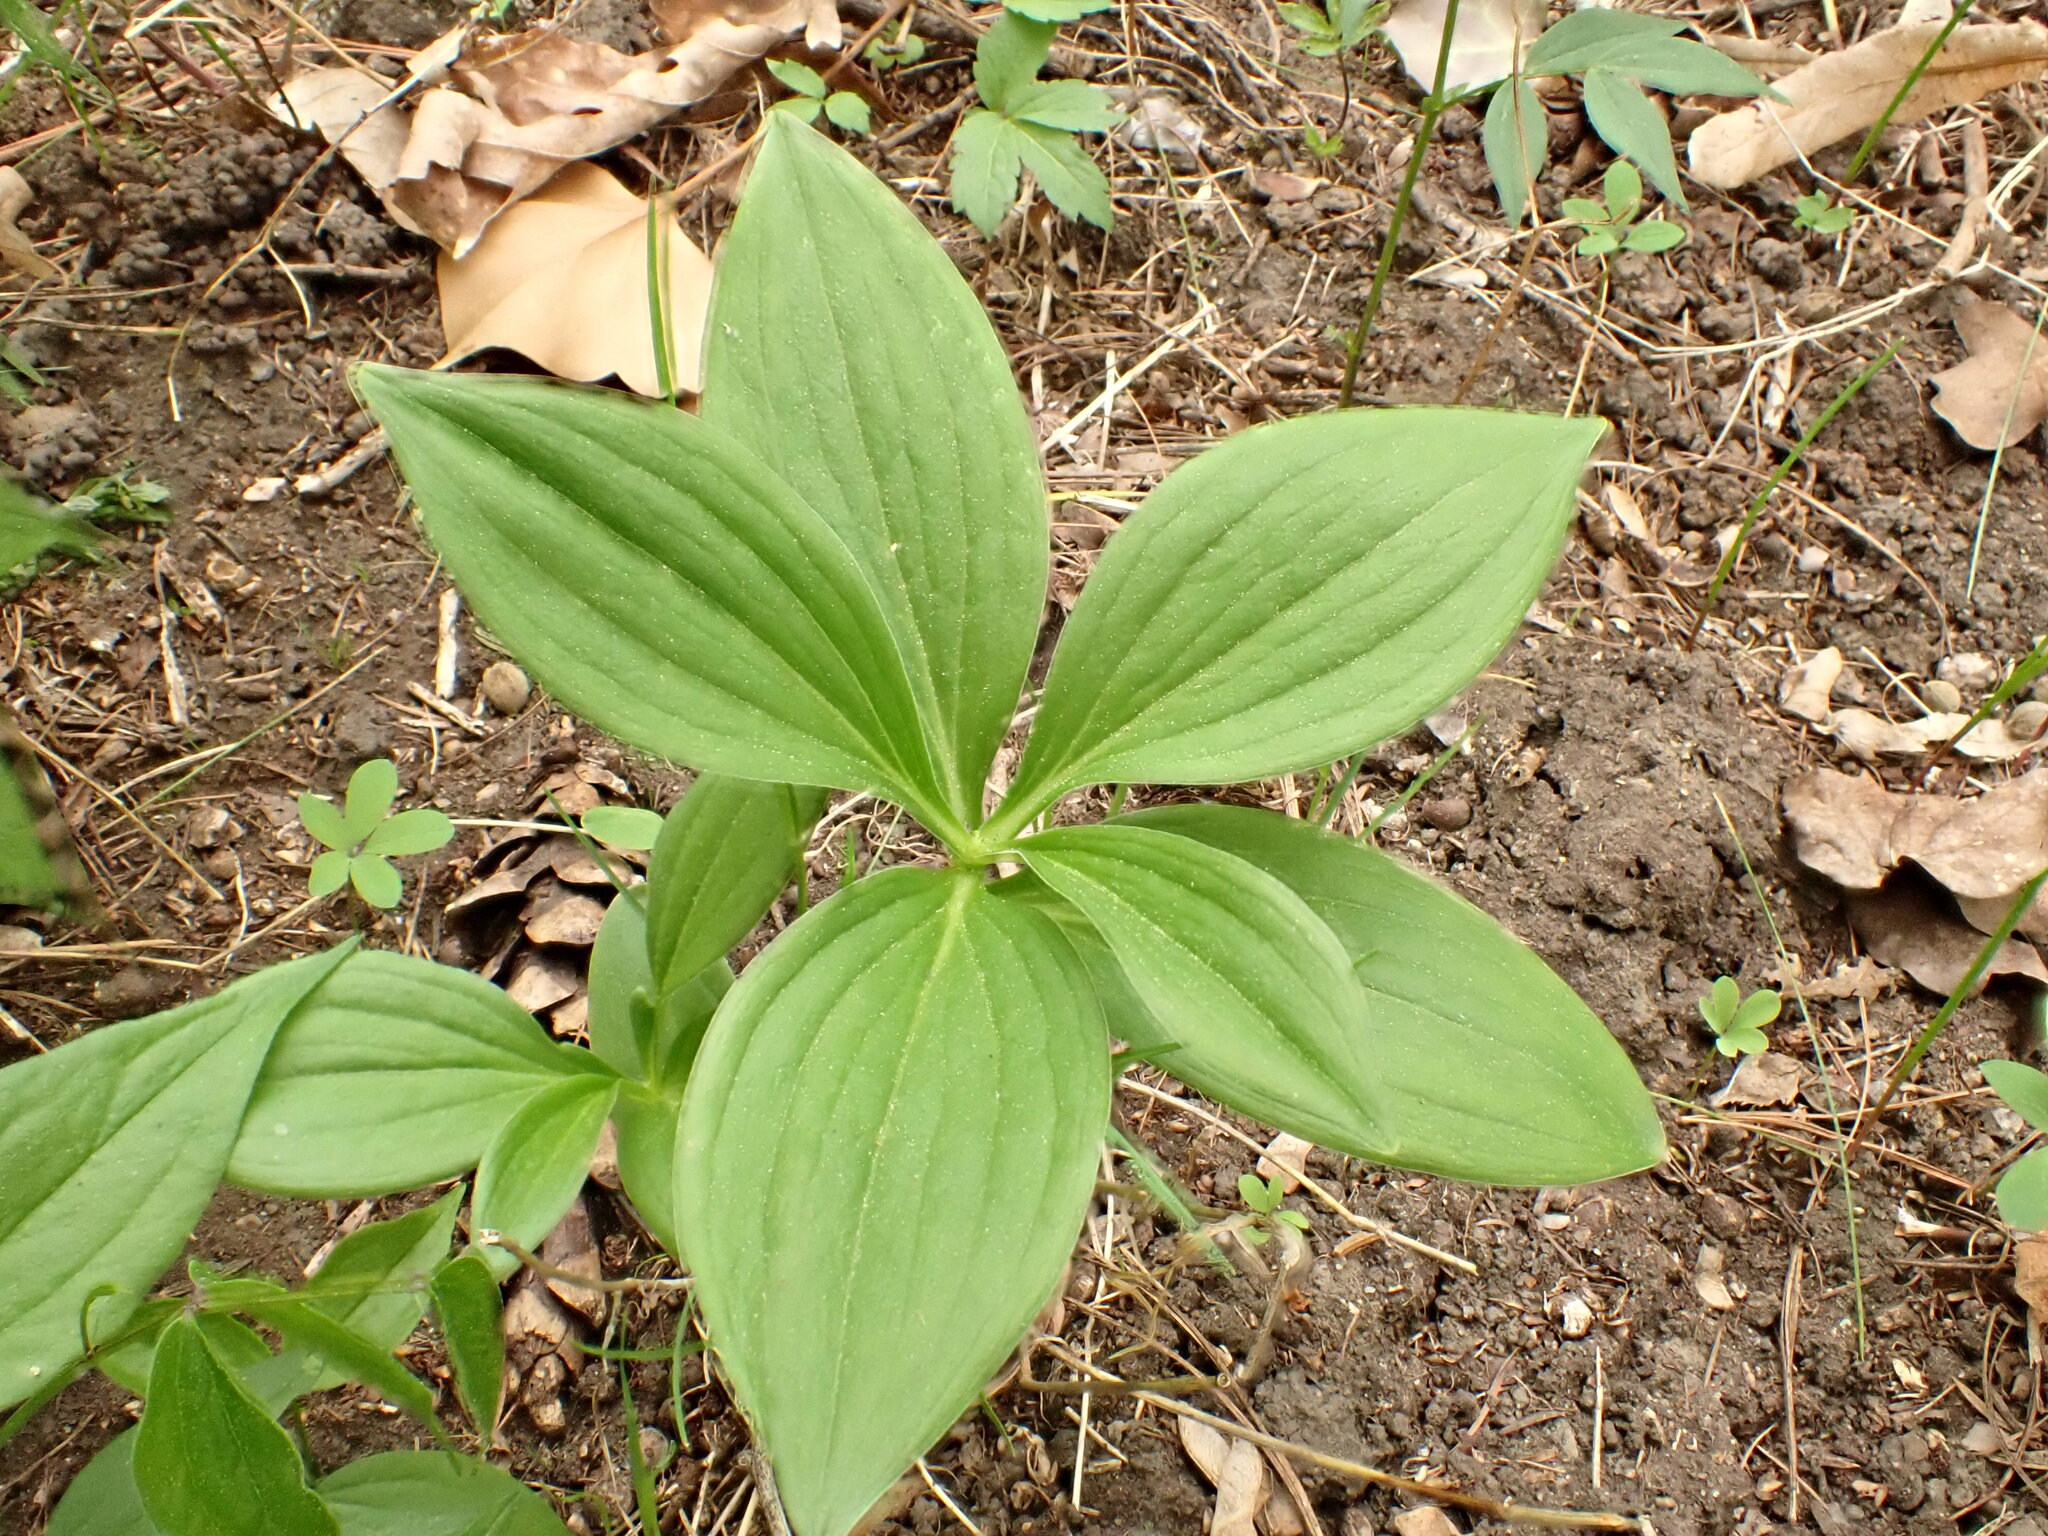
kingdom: Plantae
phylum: Tracheophyta
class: Liliopsida
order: Liliales
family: Liliaceae
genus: Lilium
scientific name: Lilium martagon
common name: Martagon lily
